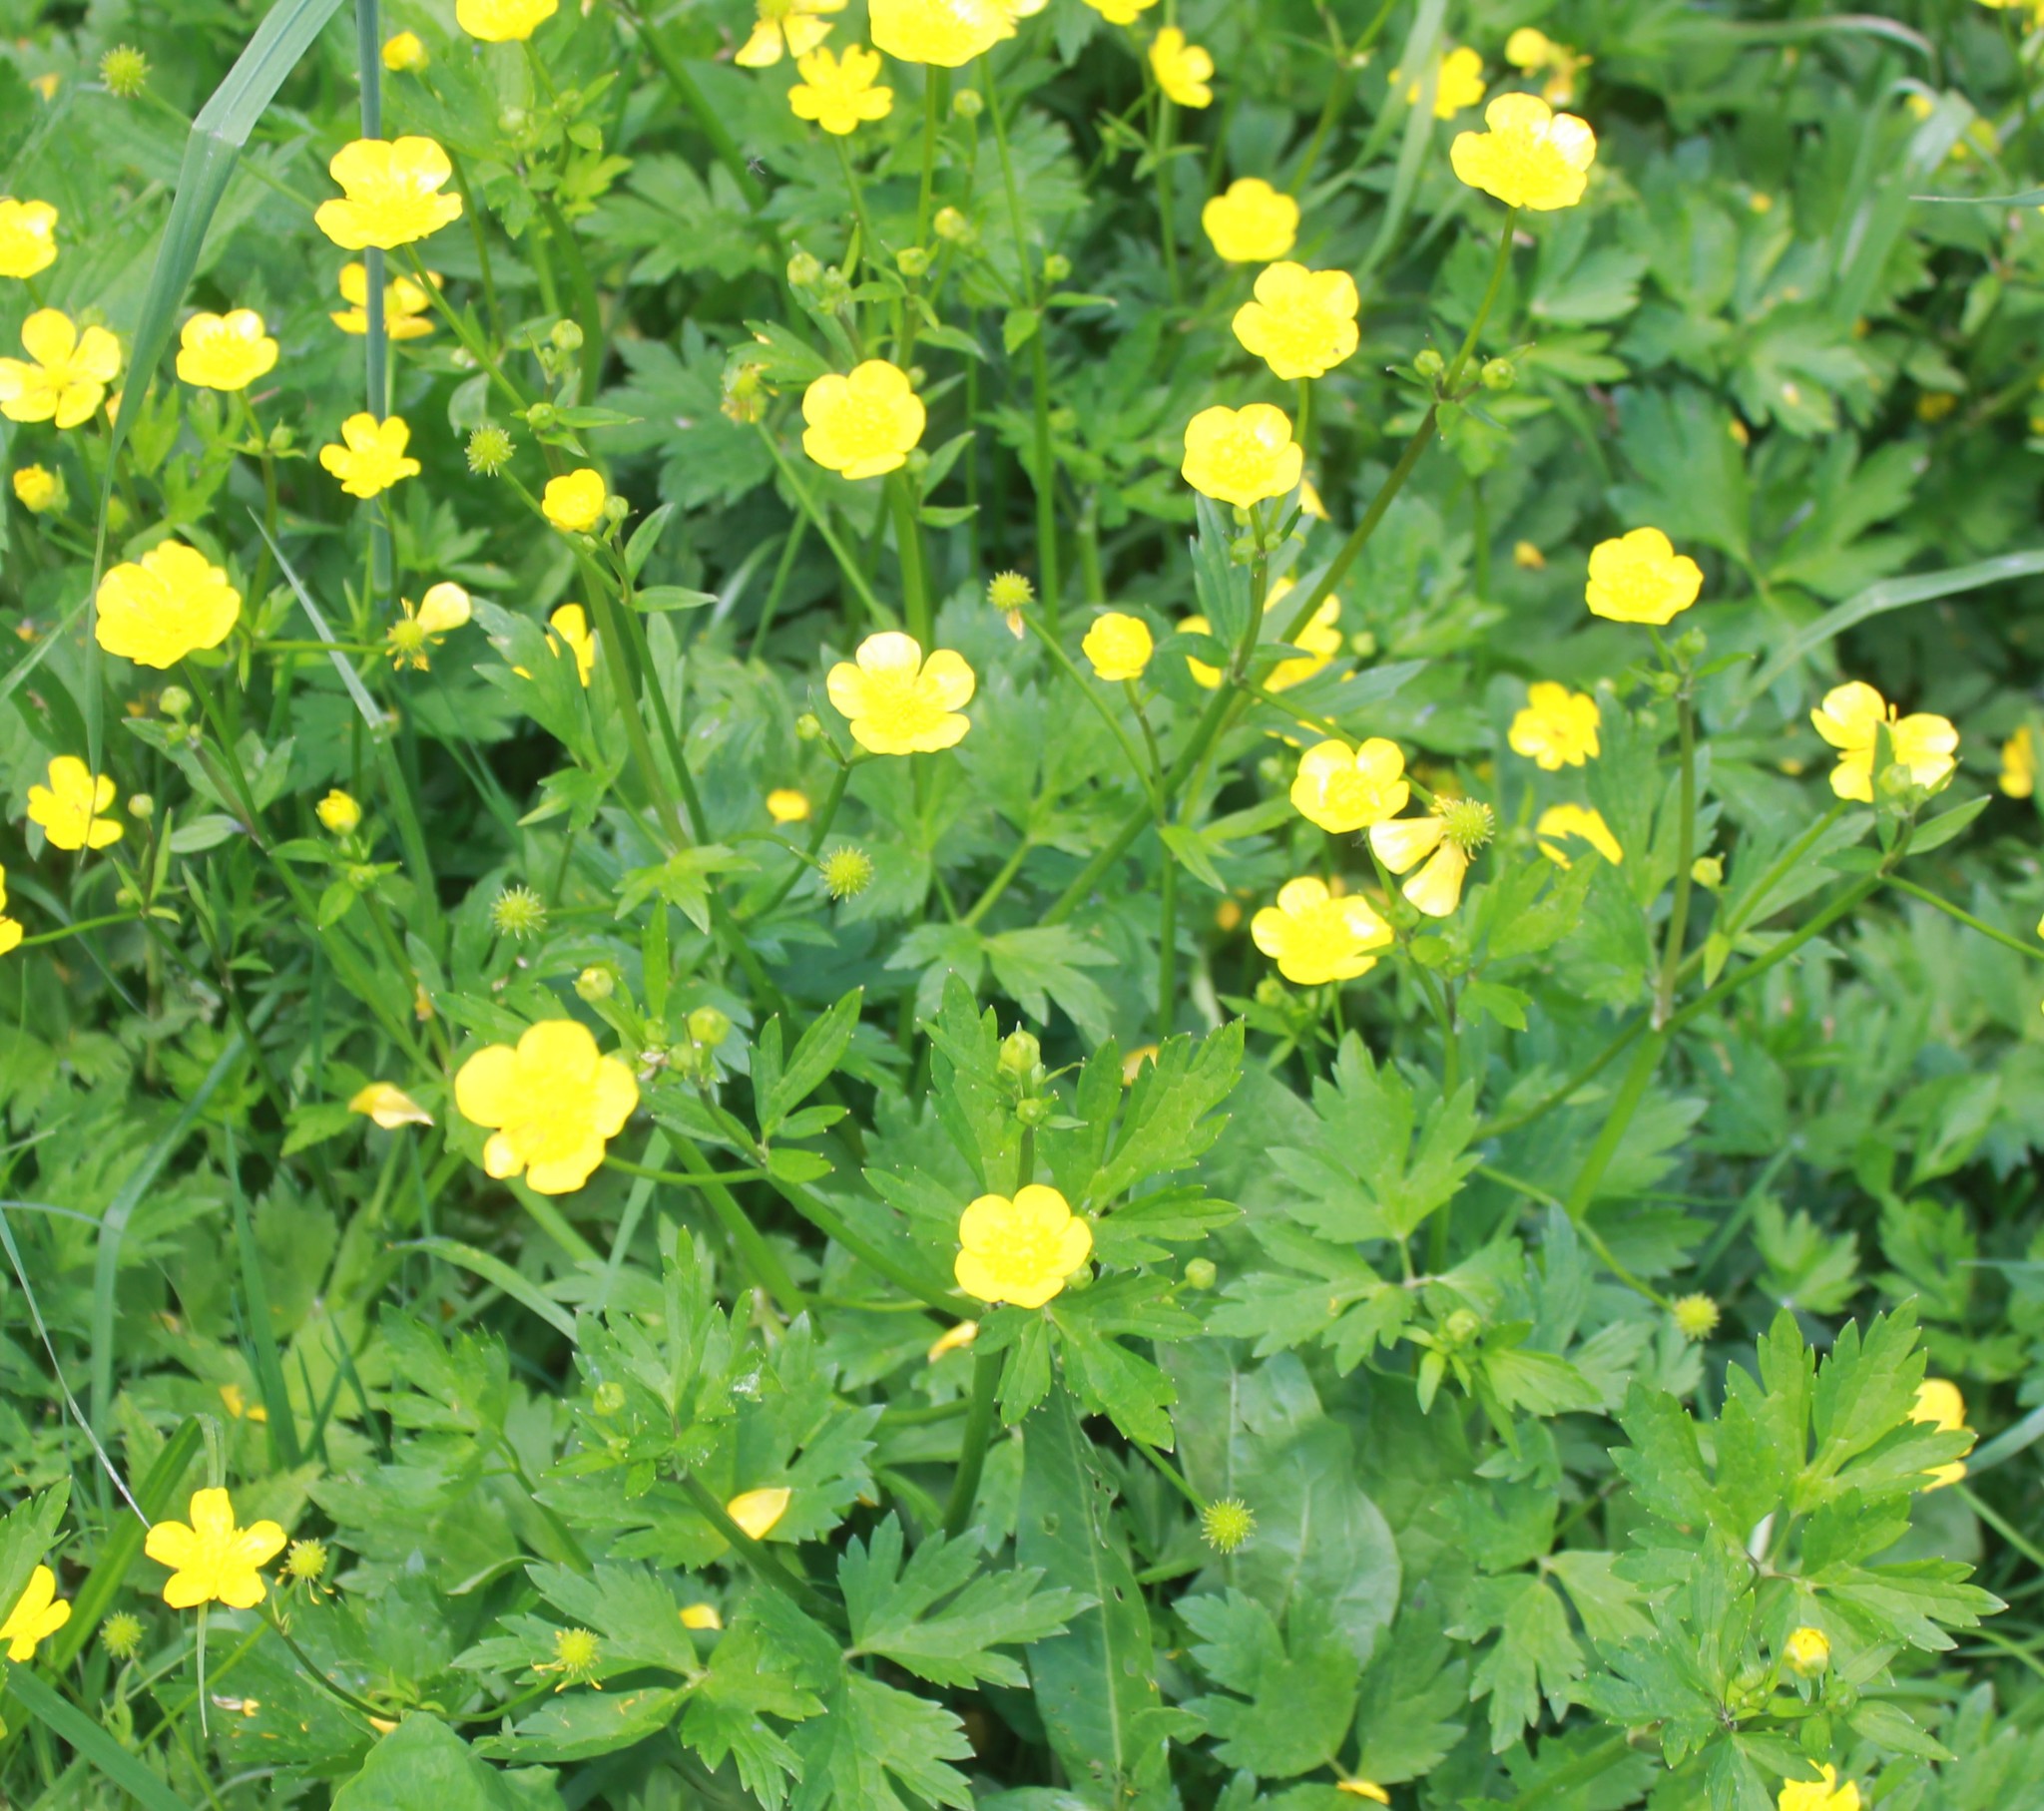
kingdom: Plantae
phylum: Tracheophyta
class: Magnoliopsida
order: Ranunculales
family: Ranunculaceae
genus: Ranunculus
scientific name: Ranunculus repens
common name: Creeping buttercup
